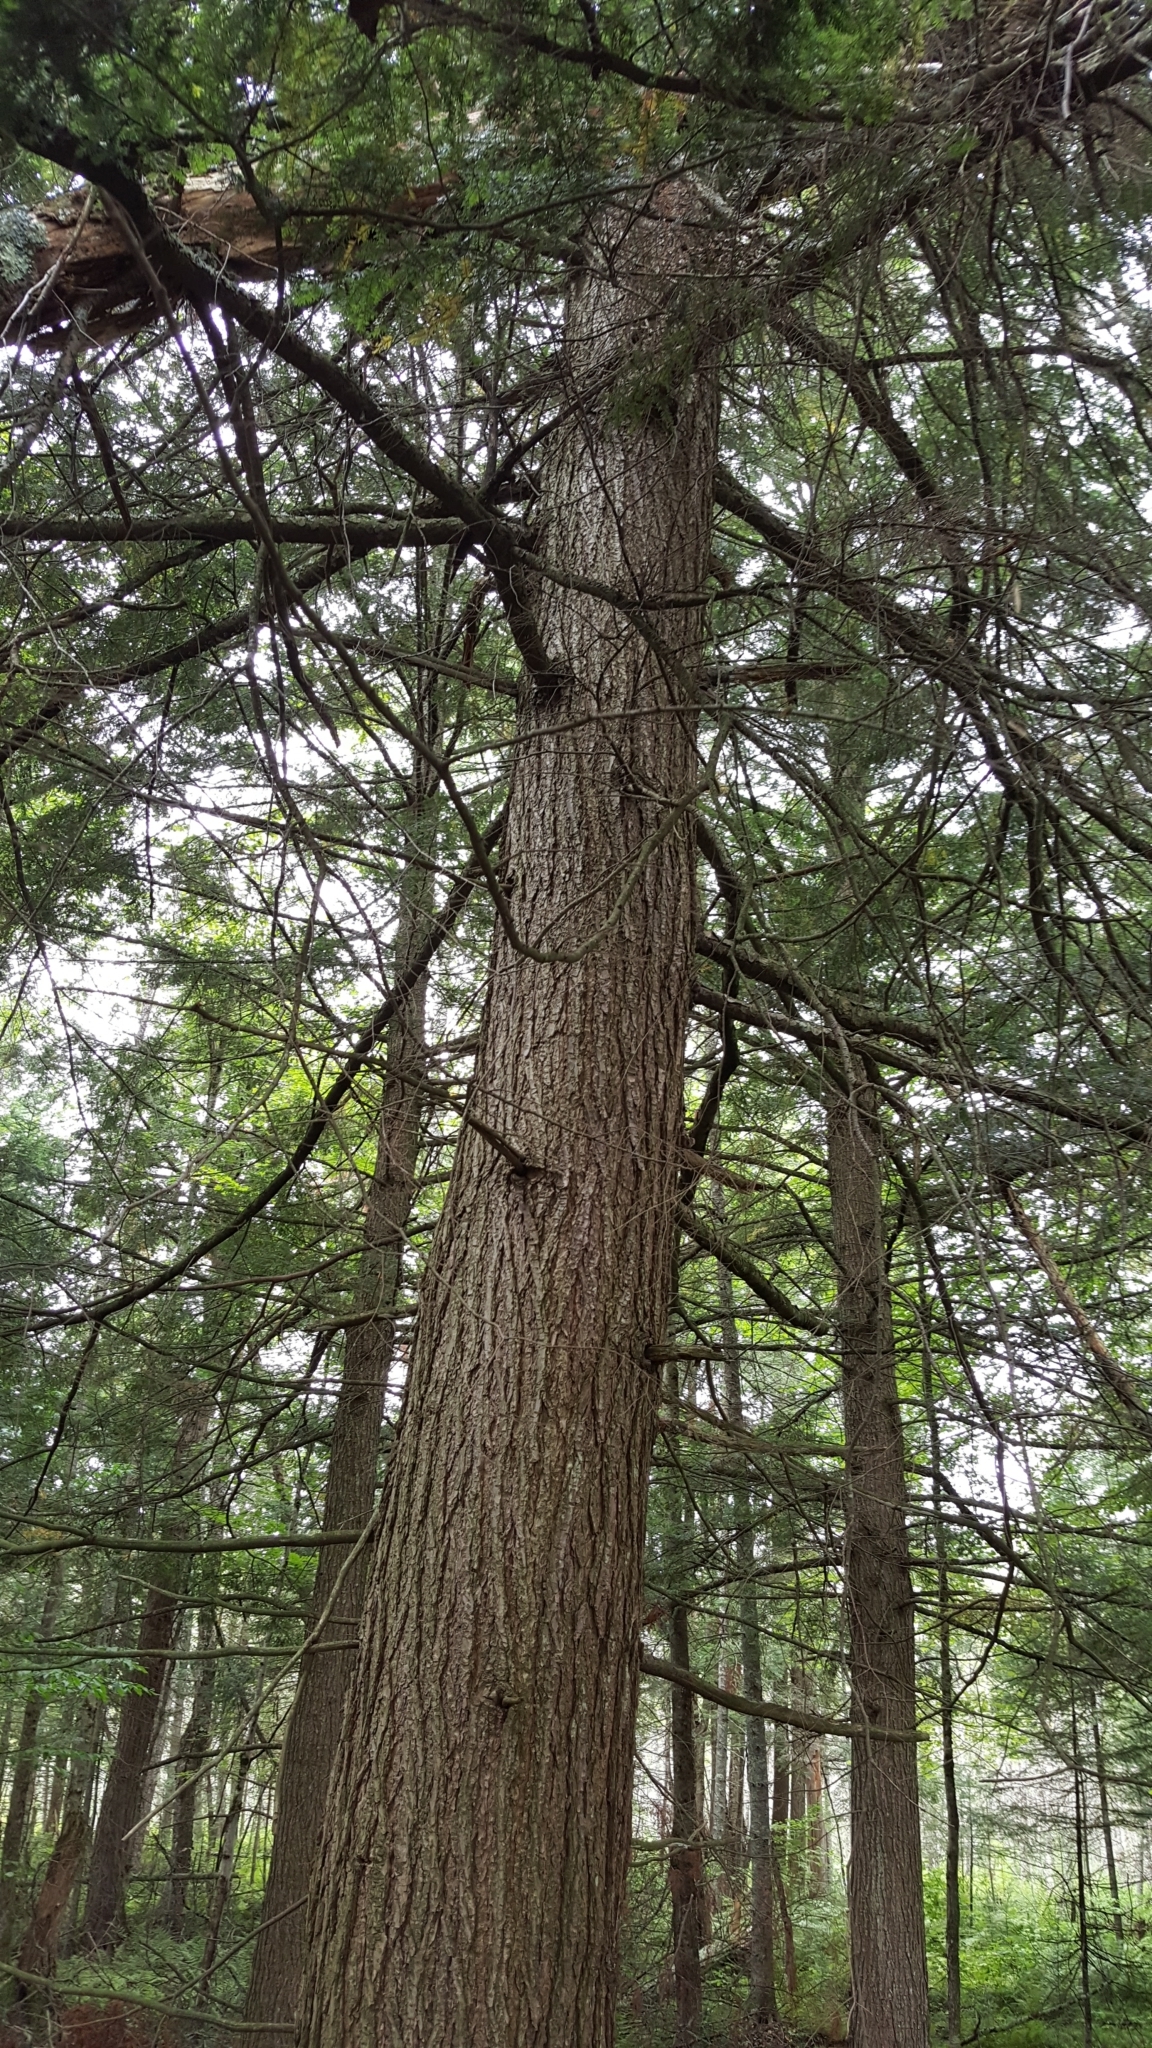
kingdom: Plantae
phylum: Tracheophyta
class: Pinopsida
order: Pinales
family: Pinaceae
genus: Tsuga
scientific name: Tsuga canadensis
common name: Eastern hemlock
